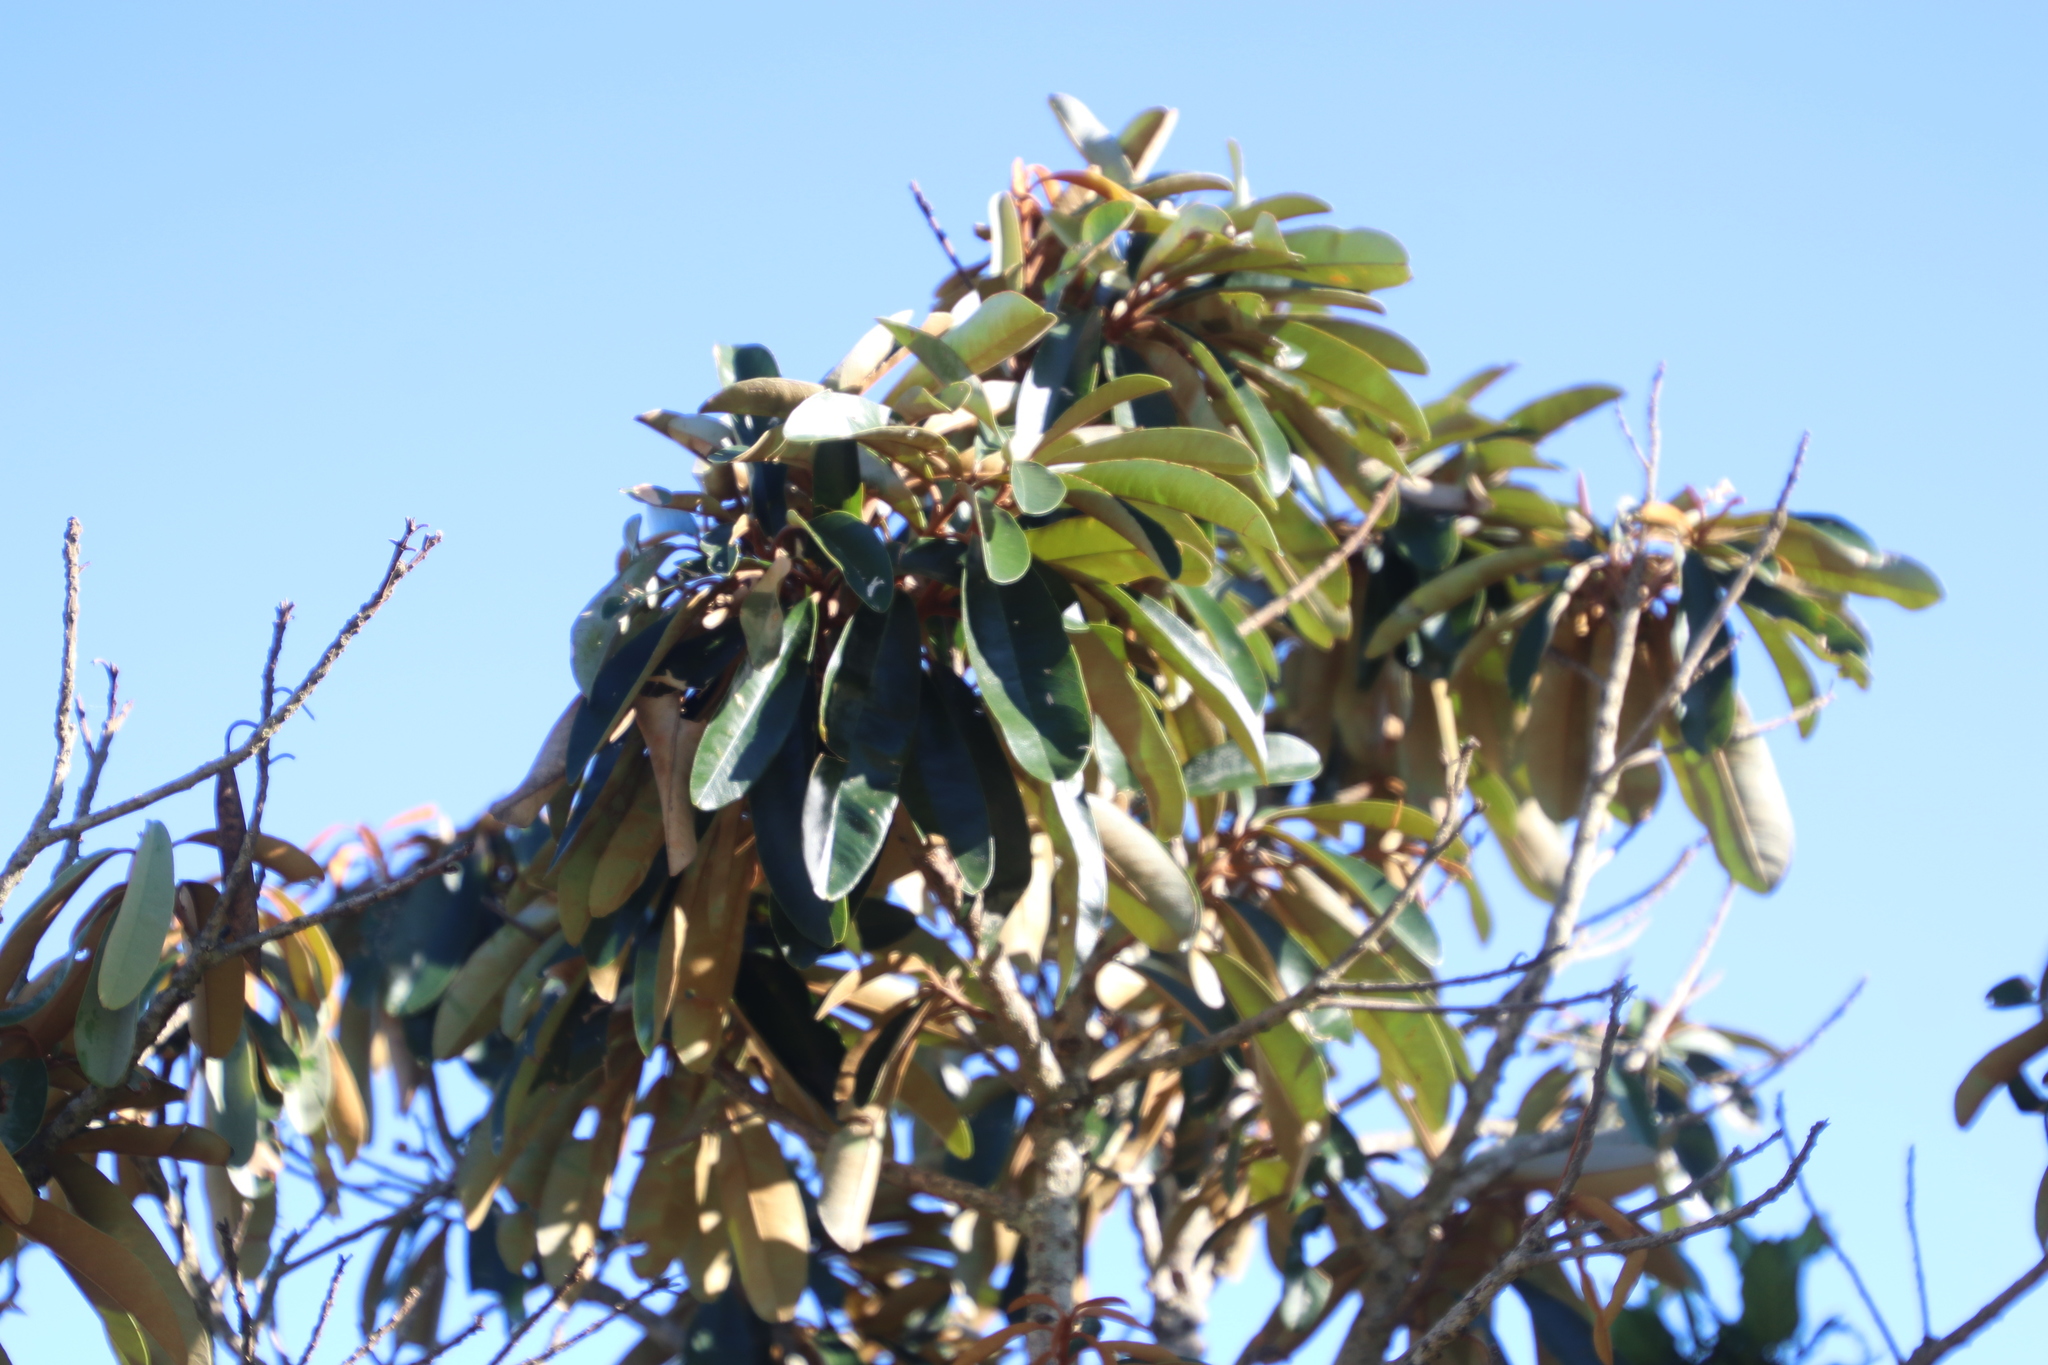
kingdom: Plantae
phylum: Tracheophyta
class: Magnoliopsida
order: Ericales
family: Sapotaceae
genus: Englerophytum
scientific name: Englerophytum magalismontanum
